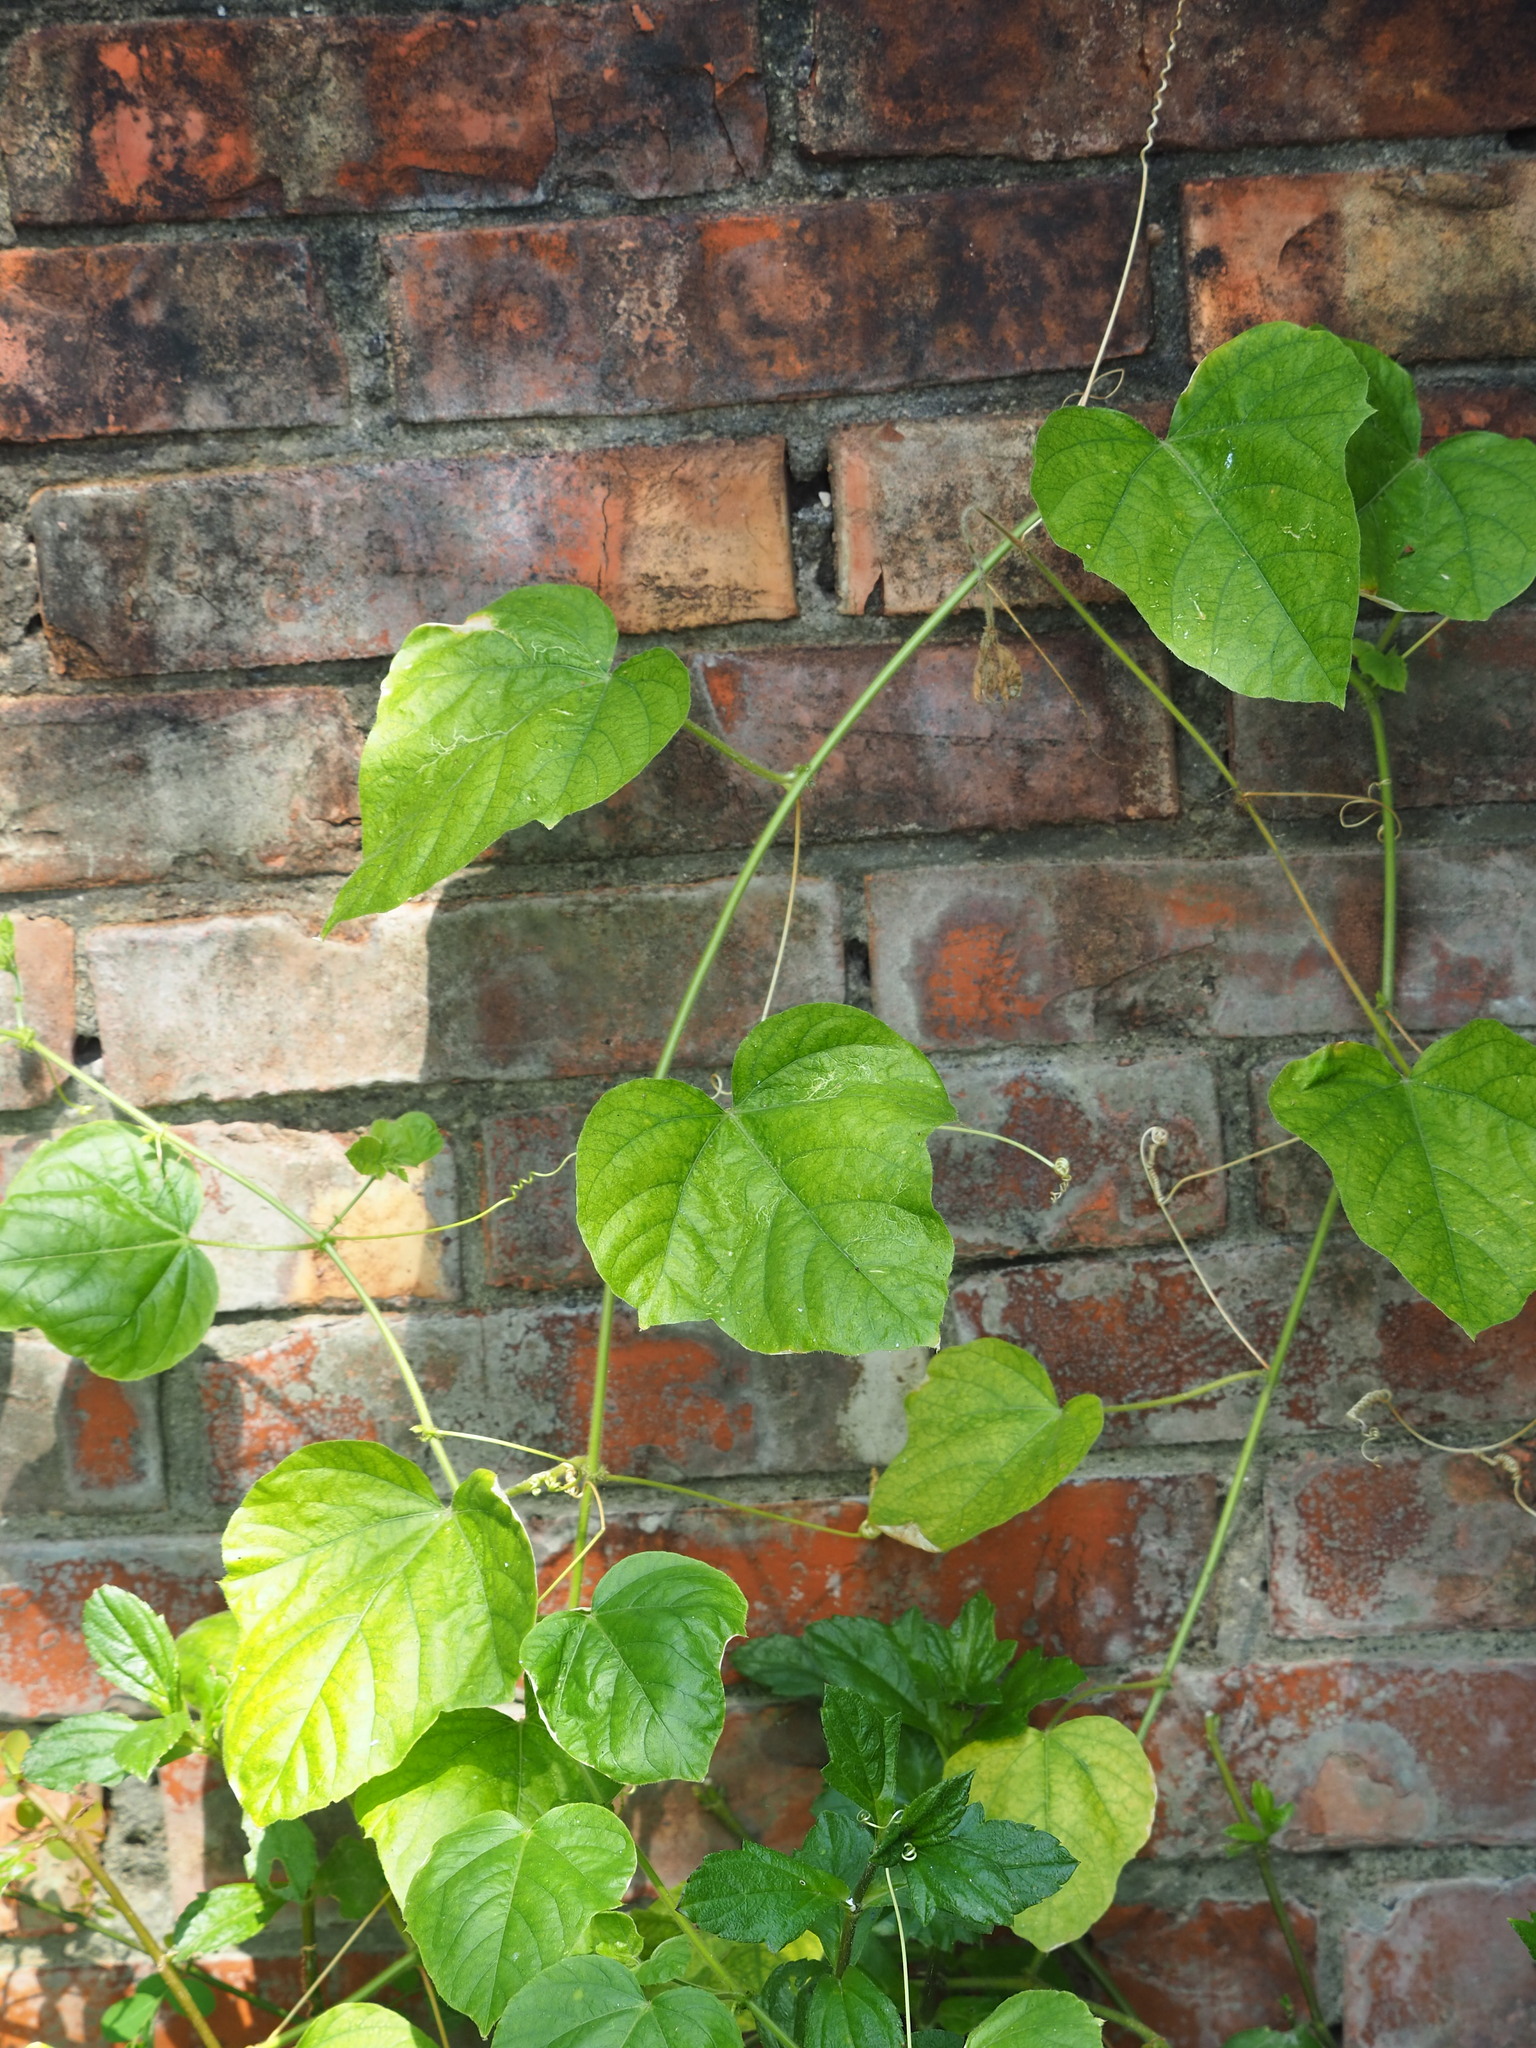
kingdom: Plantae
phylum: Tracheophyta
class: Magnoliopsida
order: Malpighiales
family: Passifloraceae
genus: Passiflora
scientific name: Passiflora vesicaria
